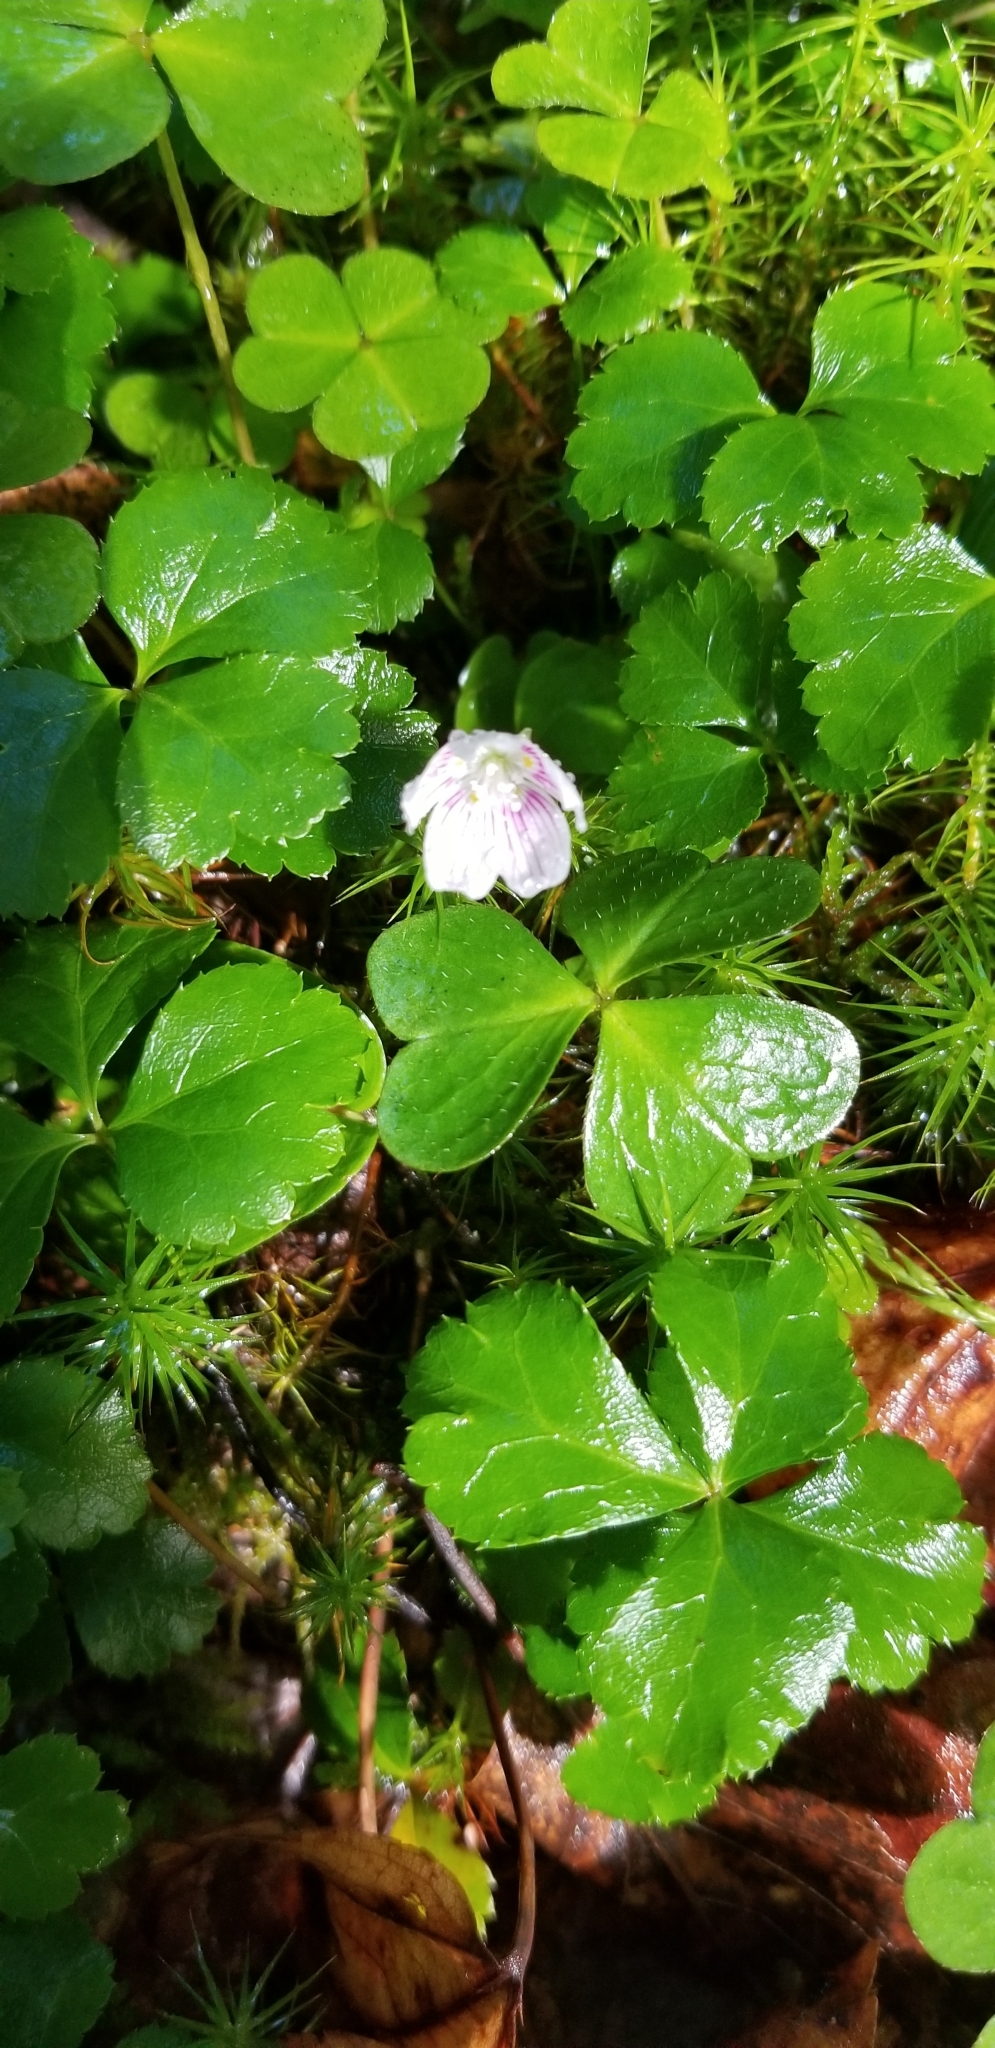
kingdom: Plantae
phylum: Tracheophyta
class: Magnoliopsida
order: Oxalidales
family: Oxalidaceae
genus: Oxalis
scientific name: Oxalis montana
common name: American wood-sorrel
